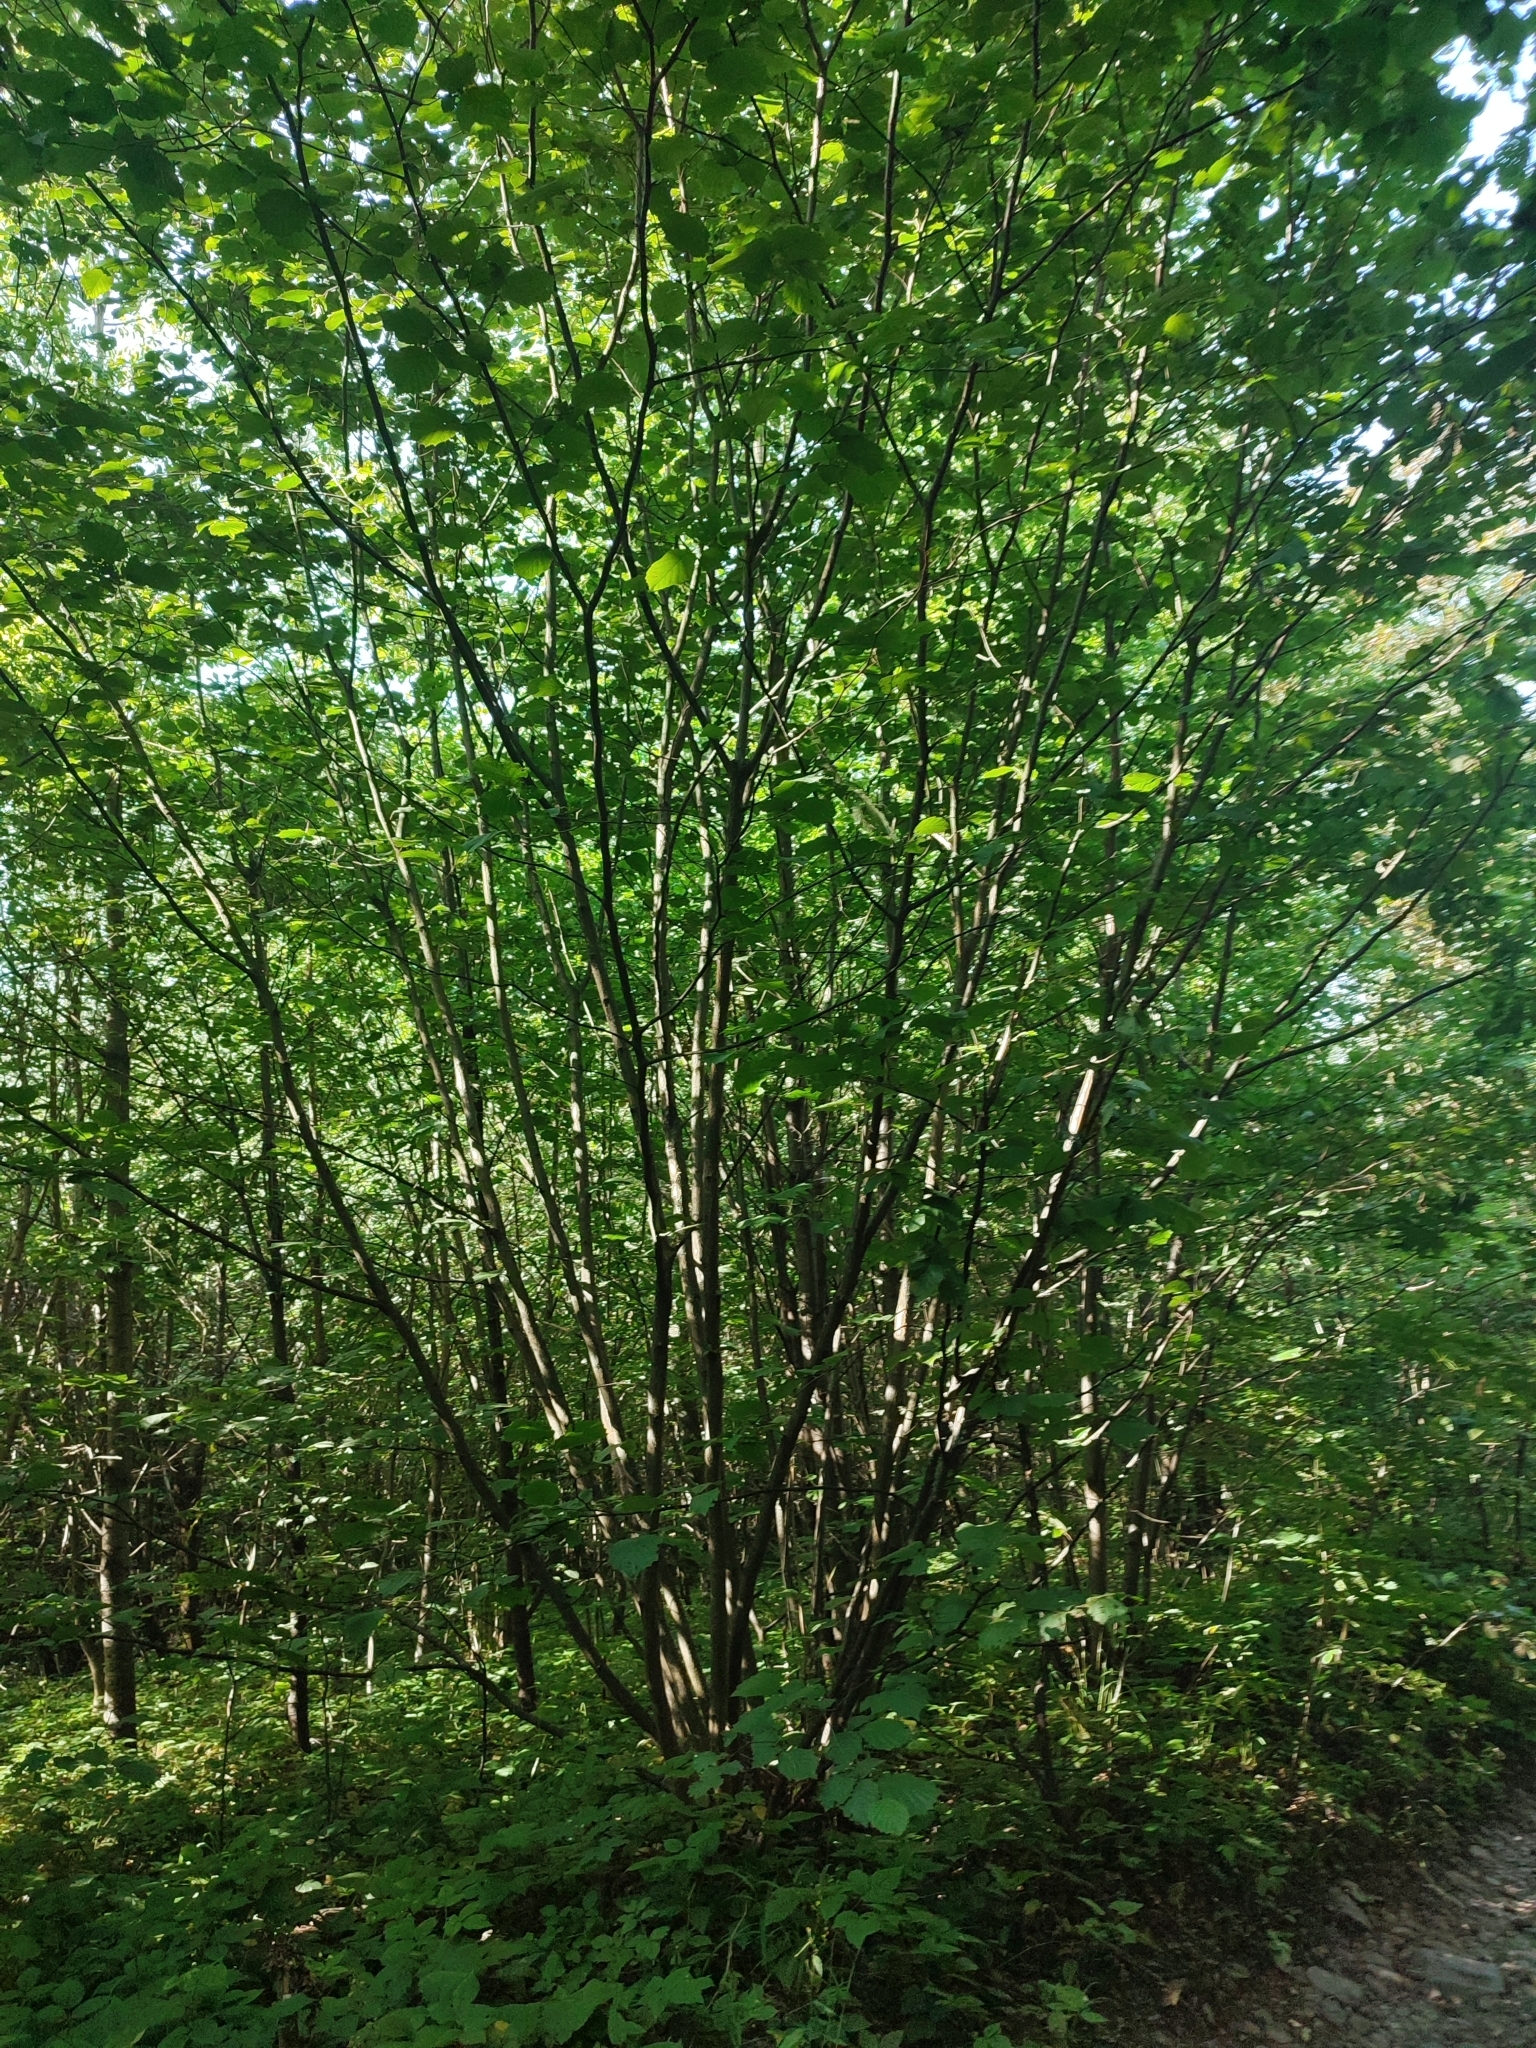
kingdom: Plantae
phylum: Tracheophyta
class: Magnoliopsida
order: Fagales
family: Betulaceae
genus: Corylus
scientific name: Corylus avellana
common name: European hazel
